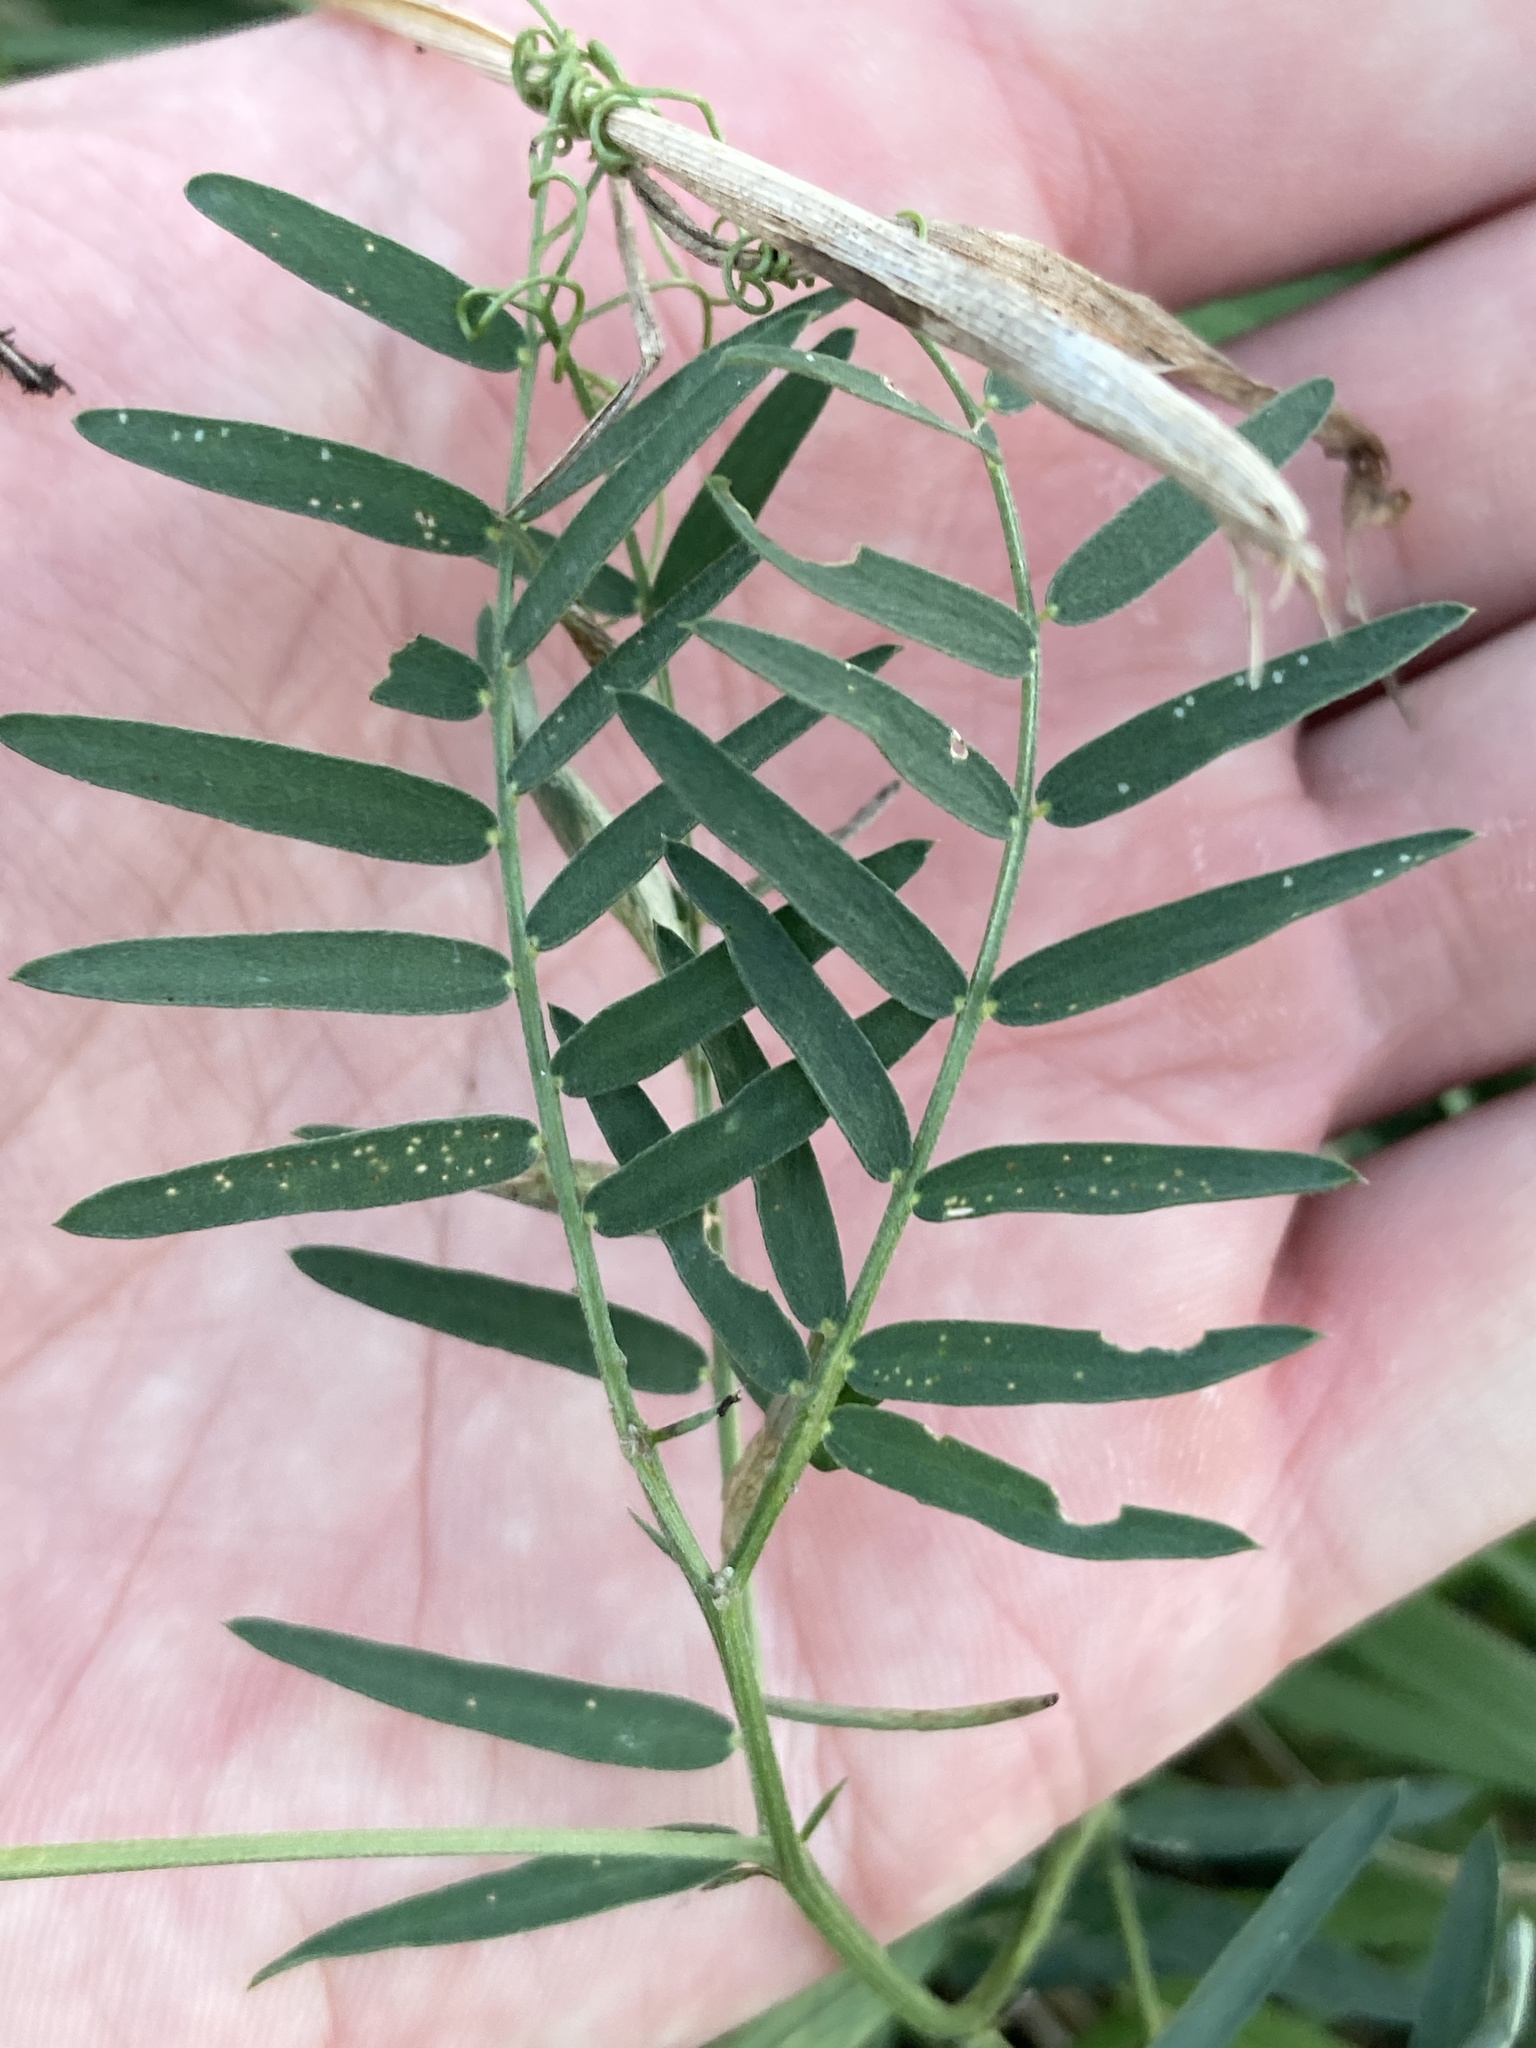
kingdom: Plantae
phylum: Tracheophyta
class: Magnoliopsida
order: Fabales
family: Fabaceae
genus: Vicia
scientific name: Vicia cracca
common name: Bird vetch
